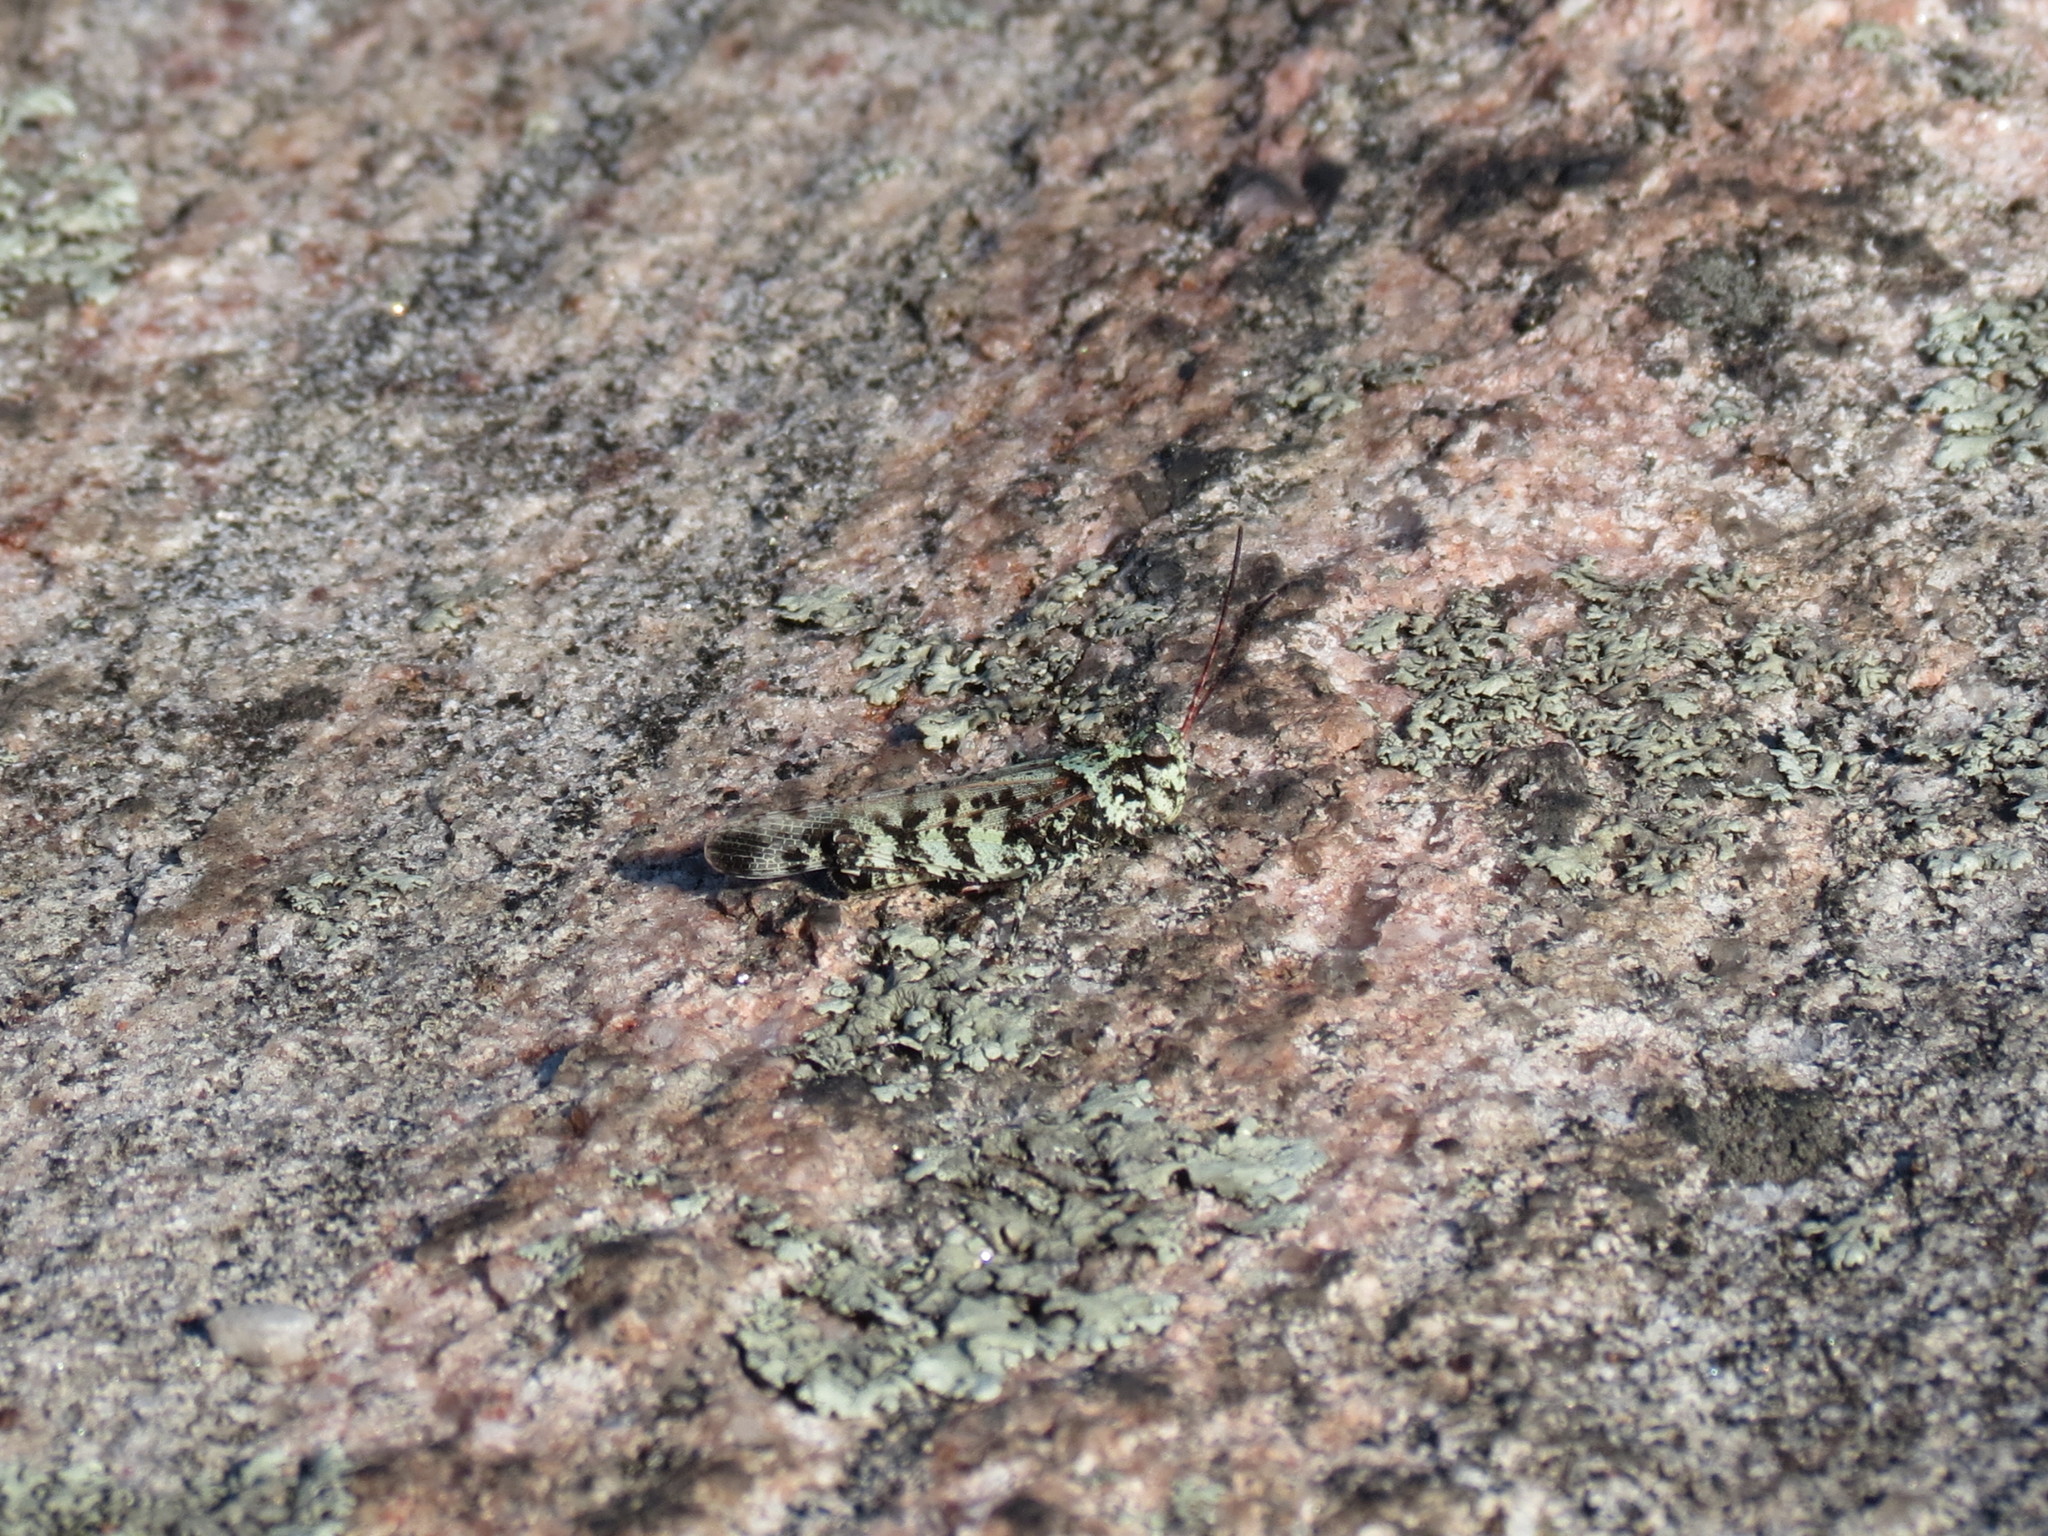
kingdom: Animalia
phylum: Arthropoda
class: Insecta
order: Orthoptera
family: Acrididae
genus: Spharagemon
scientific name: Spharagemon marmoratum
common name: Marbled grasshopper
